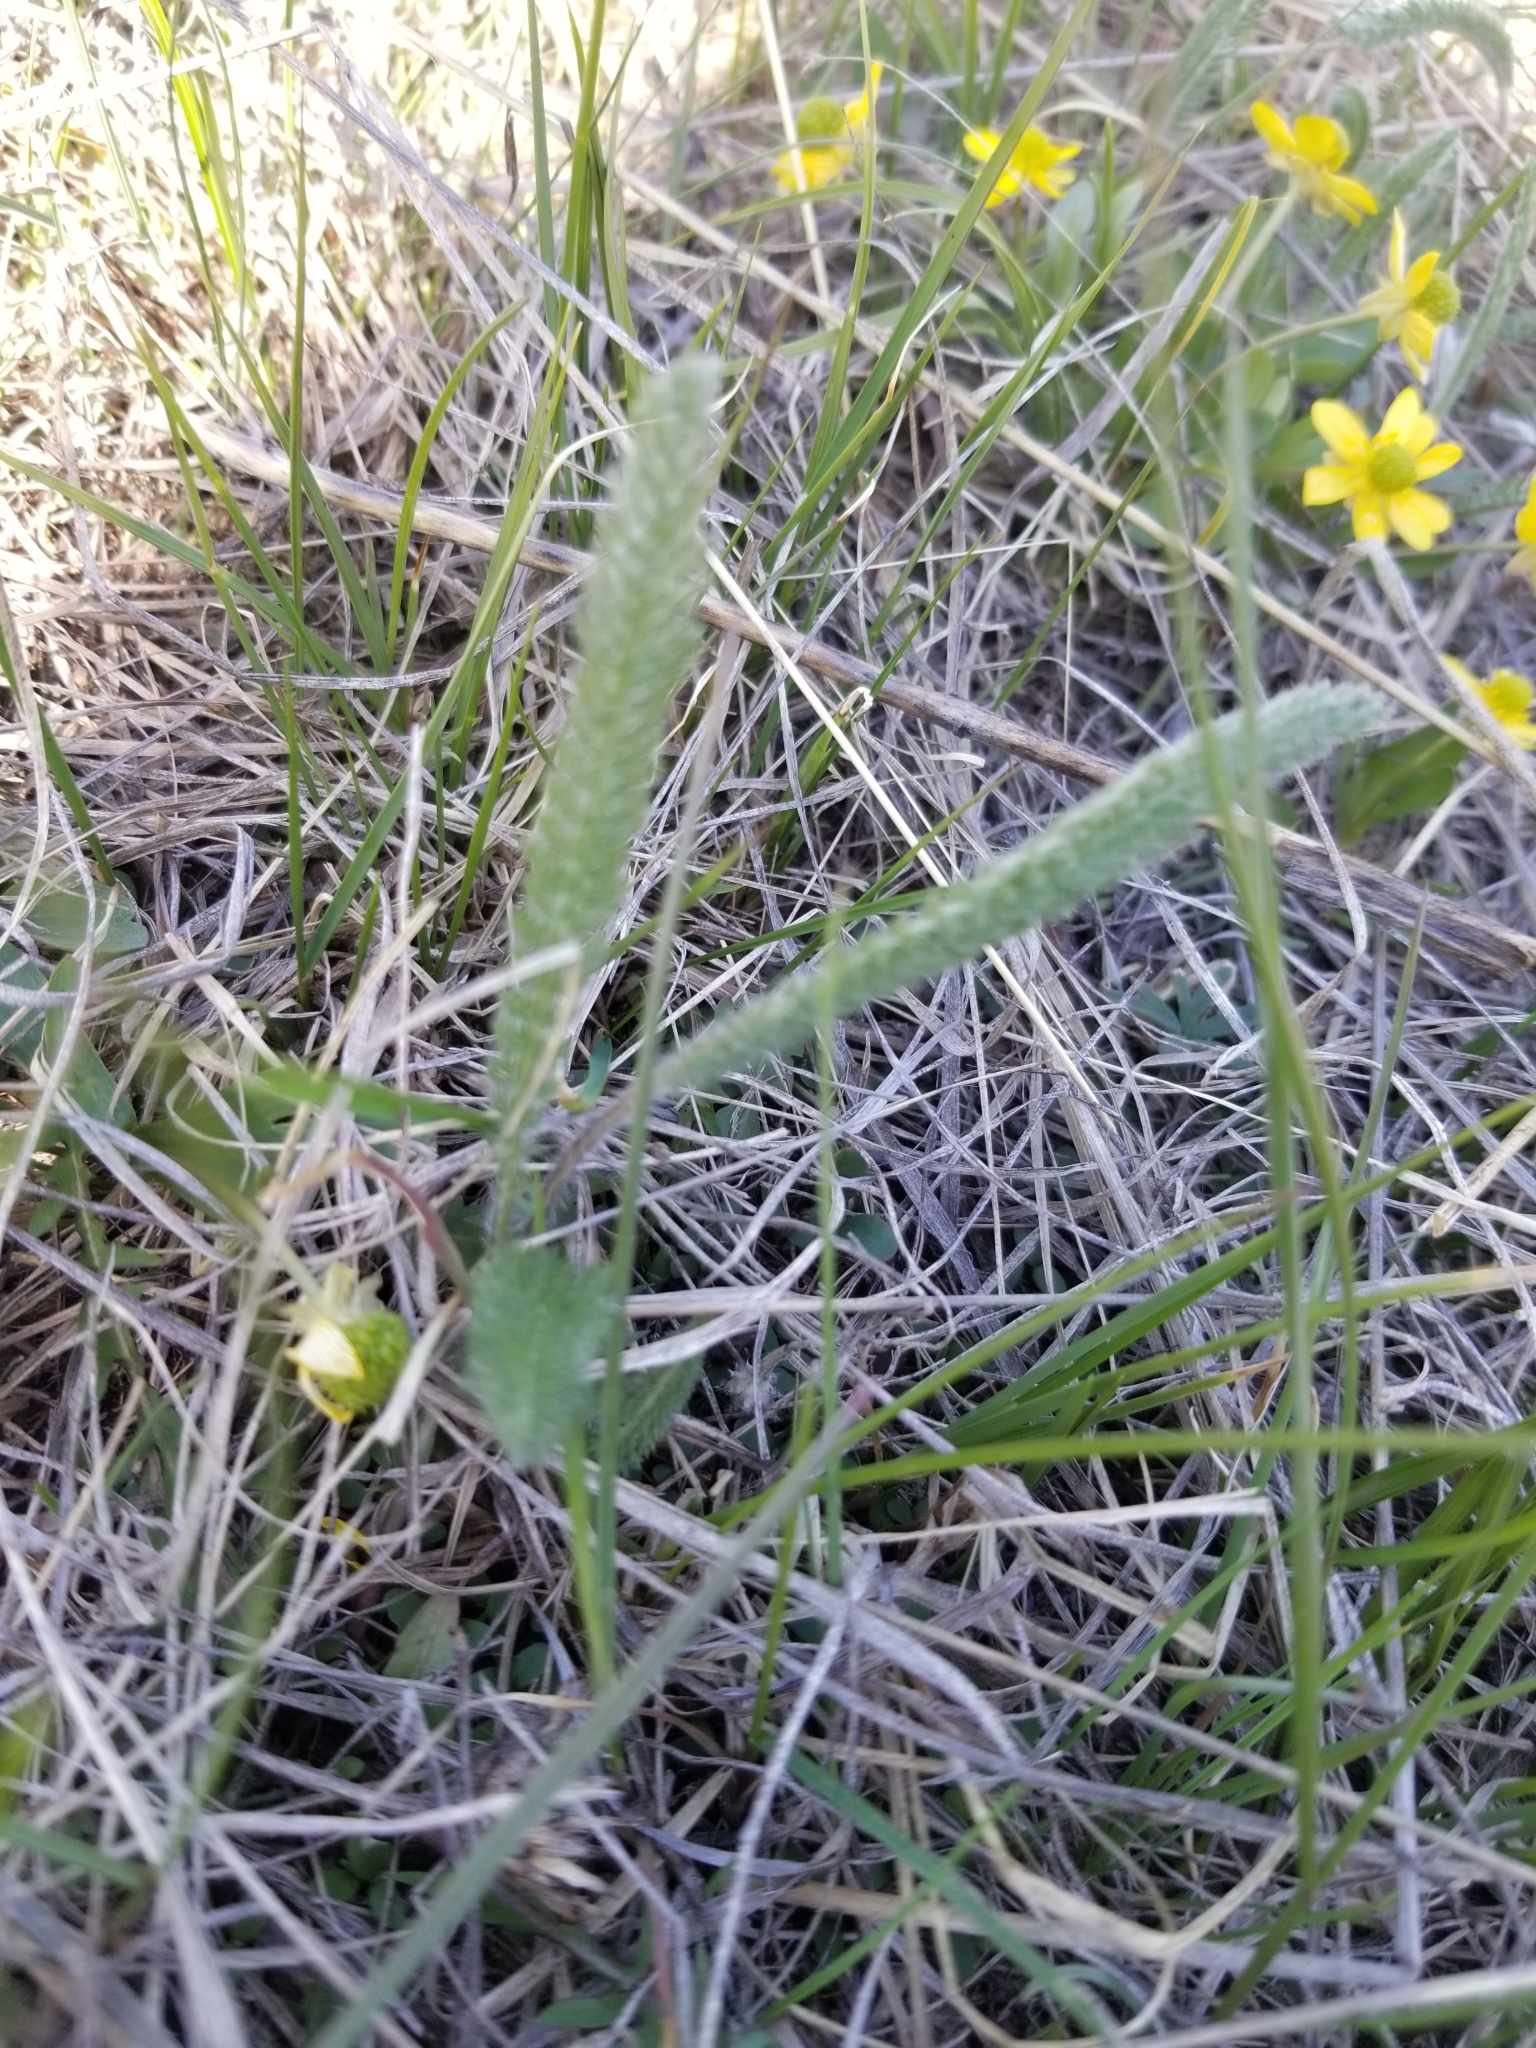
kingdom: Plantae
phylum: Tracheophyta
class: Magnoliopsida
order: Asterales
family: Asteraceae
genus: Achillea
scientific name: Achillea millefolium
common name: Yarrow
